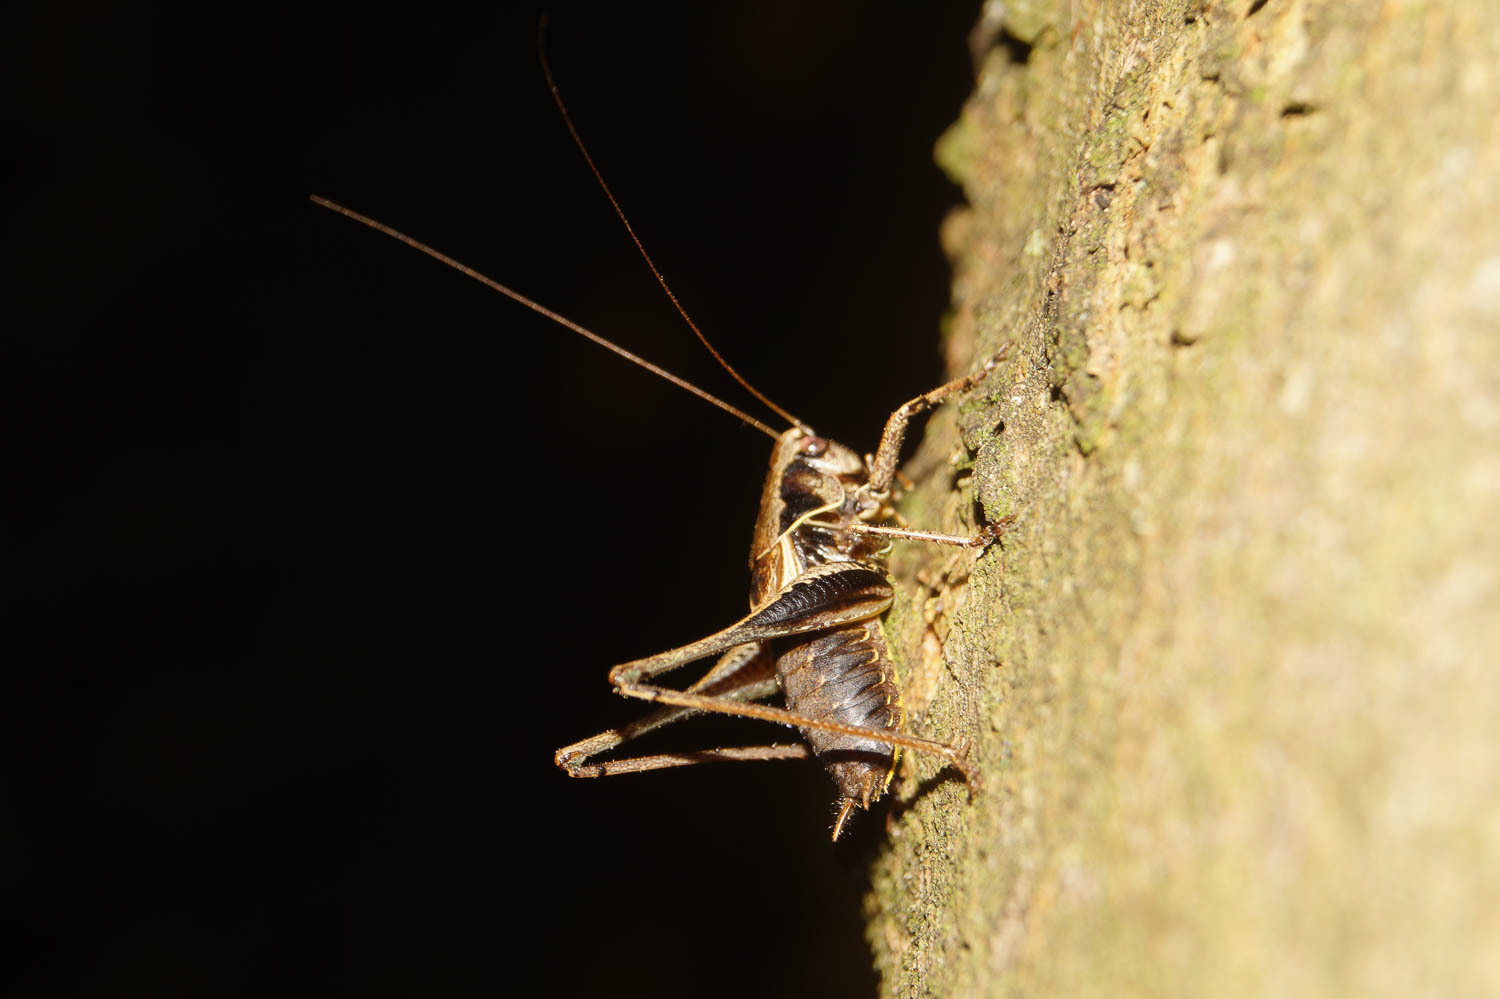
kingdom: Animalia
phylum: Arthropoda
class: Insecta
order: Orthoptera
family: Tettigoniidae
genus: Pholidoptera
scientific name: Pholidoptera griseoaptera
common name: Dark bush-cricket
